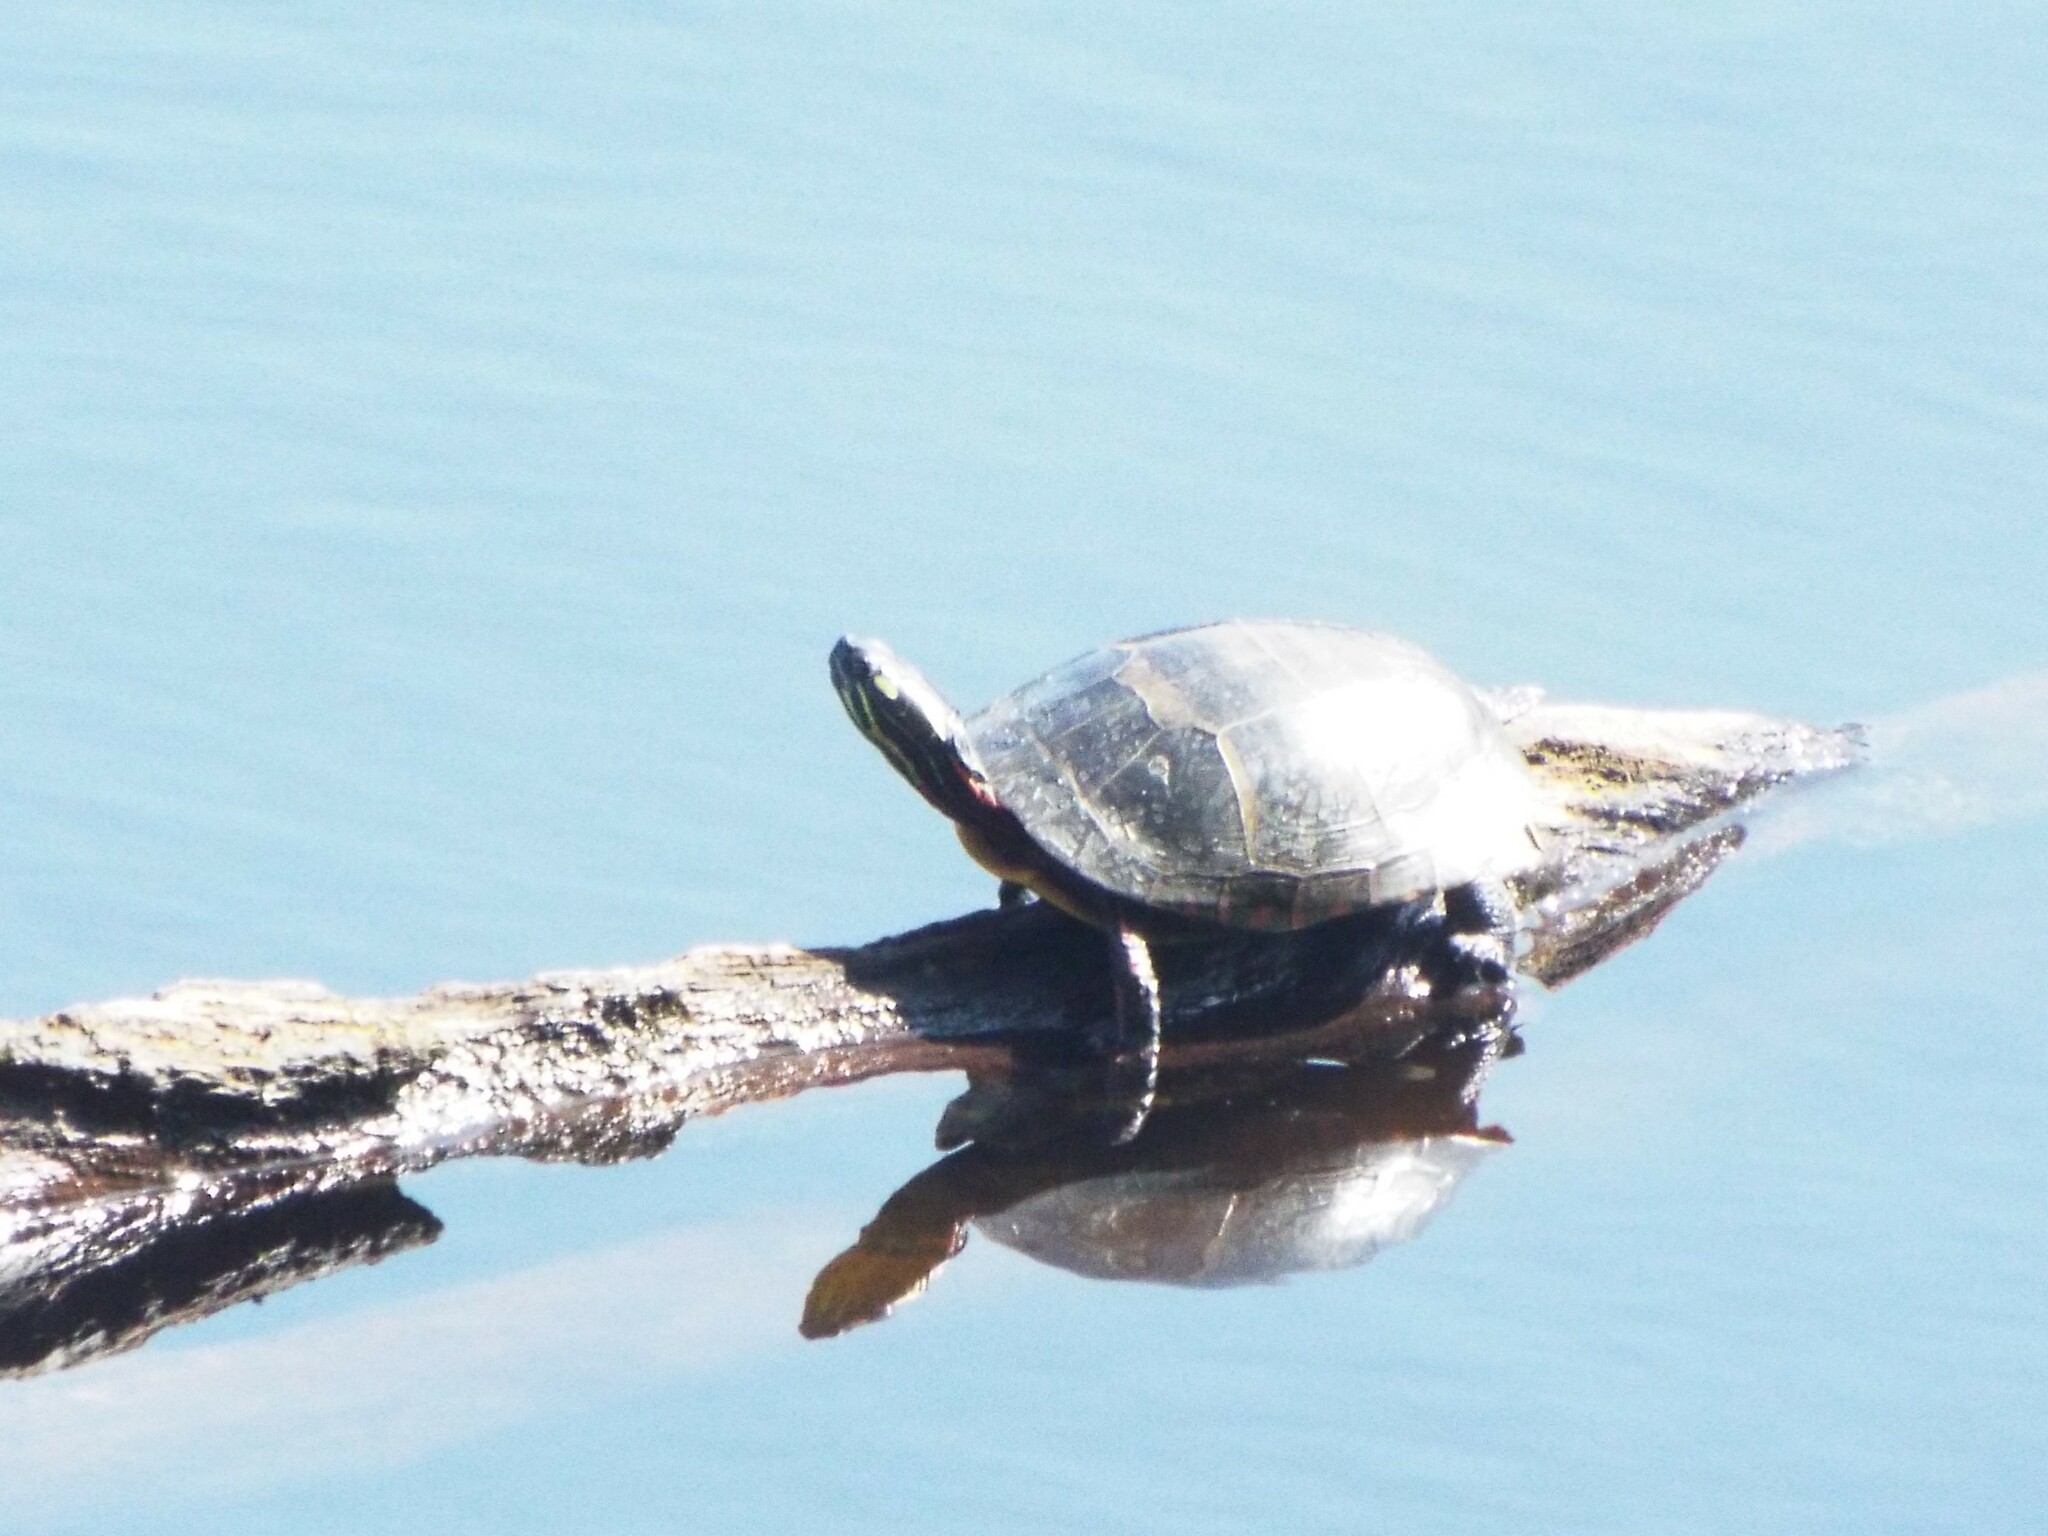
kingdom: Animalia
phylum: Chordata
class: Testudines
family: Emydidae
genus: Chrysemys
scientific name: Chrysemys picta
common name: Painted turtle
